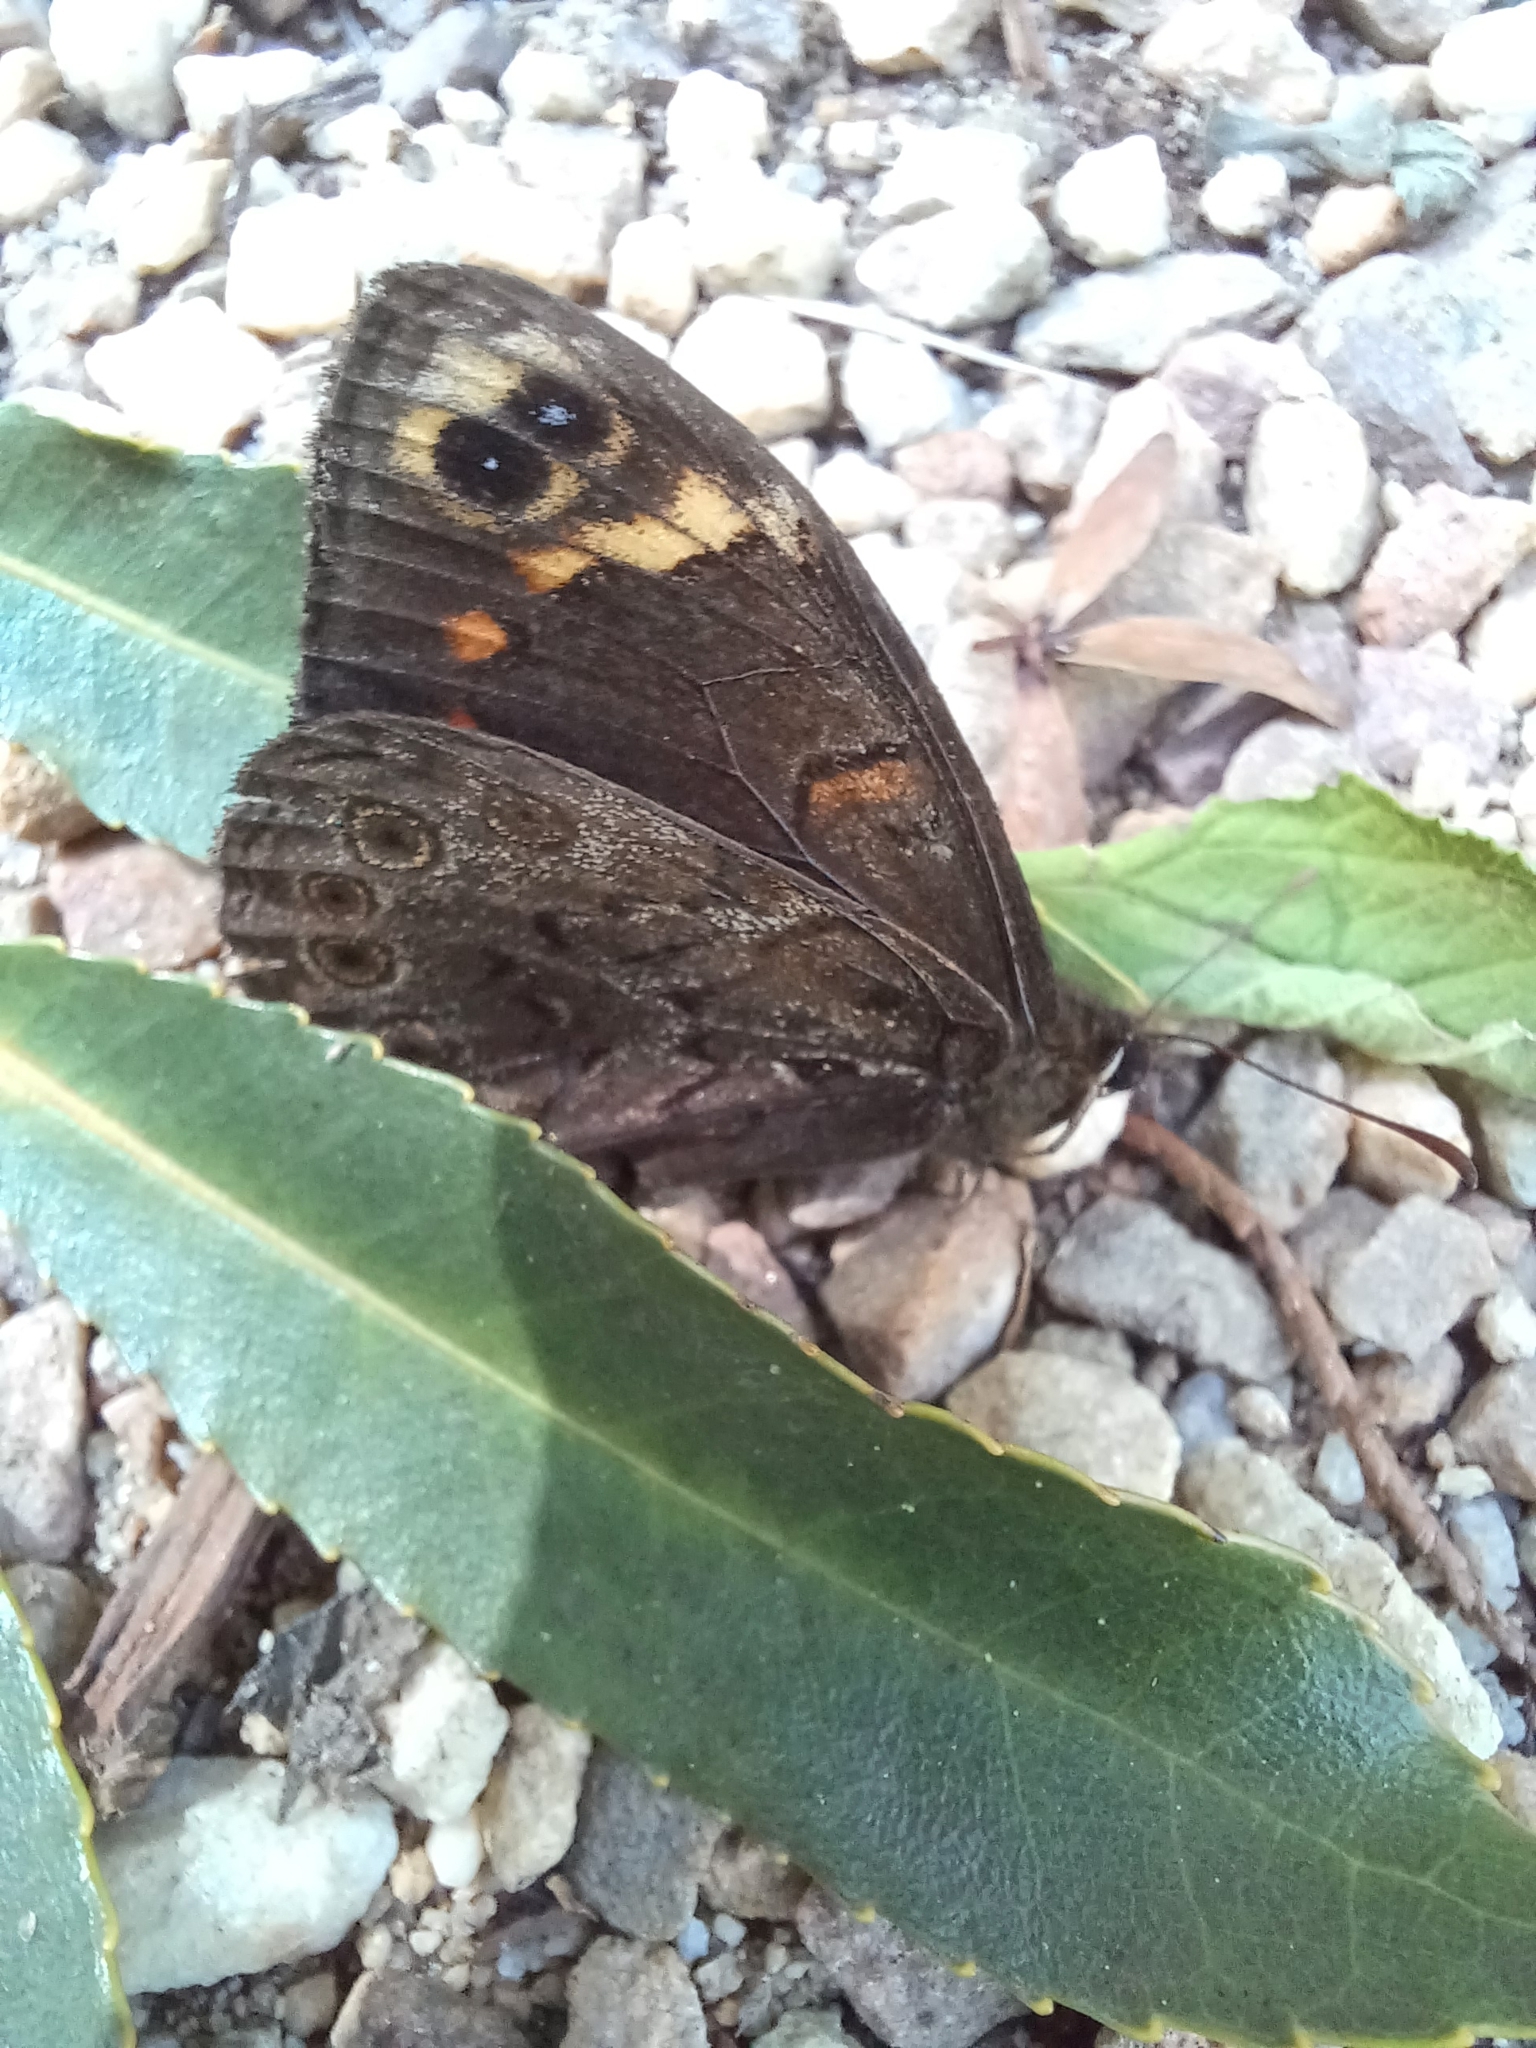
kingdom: Animalia
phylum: Arthropoda
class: Insecta
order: Lepidoptera
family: Nymphalidae
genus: Dira
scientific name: Dira clytus
